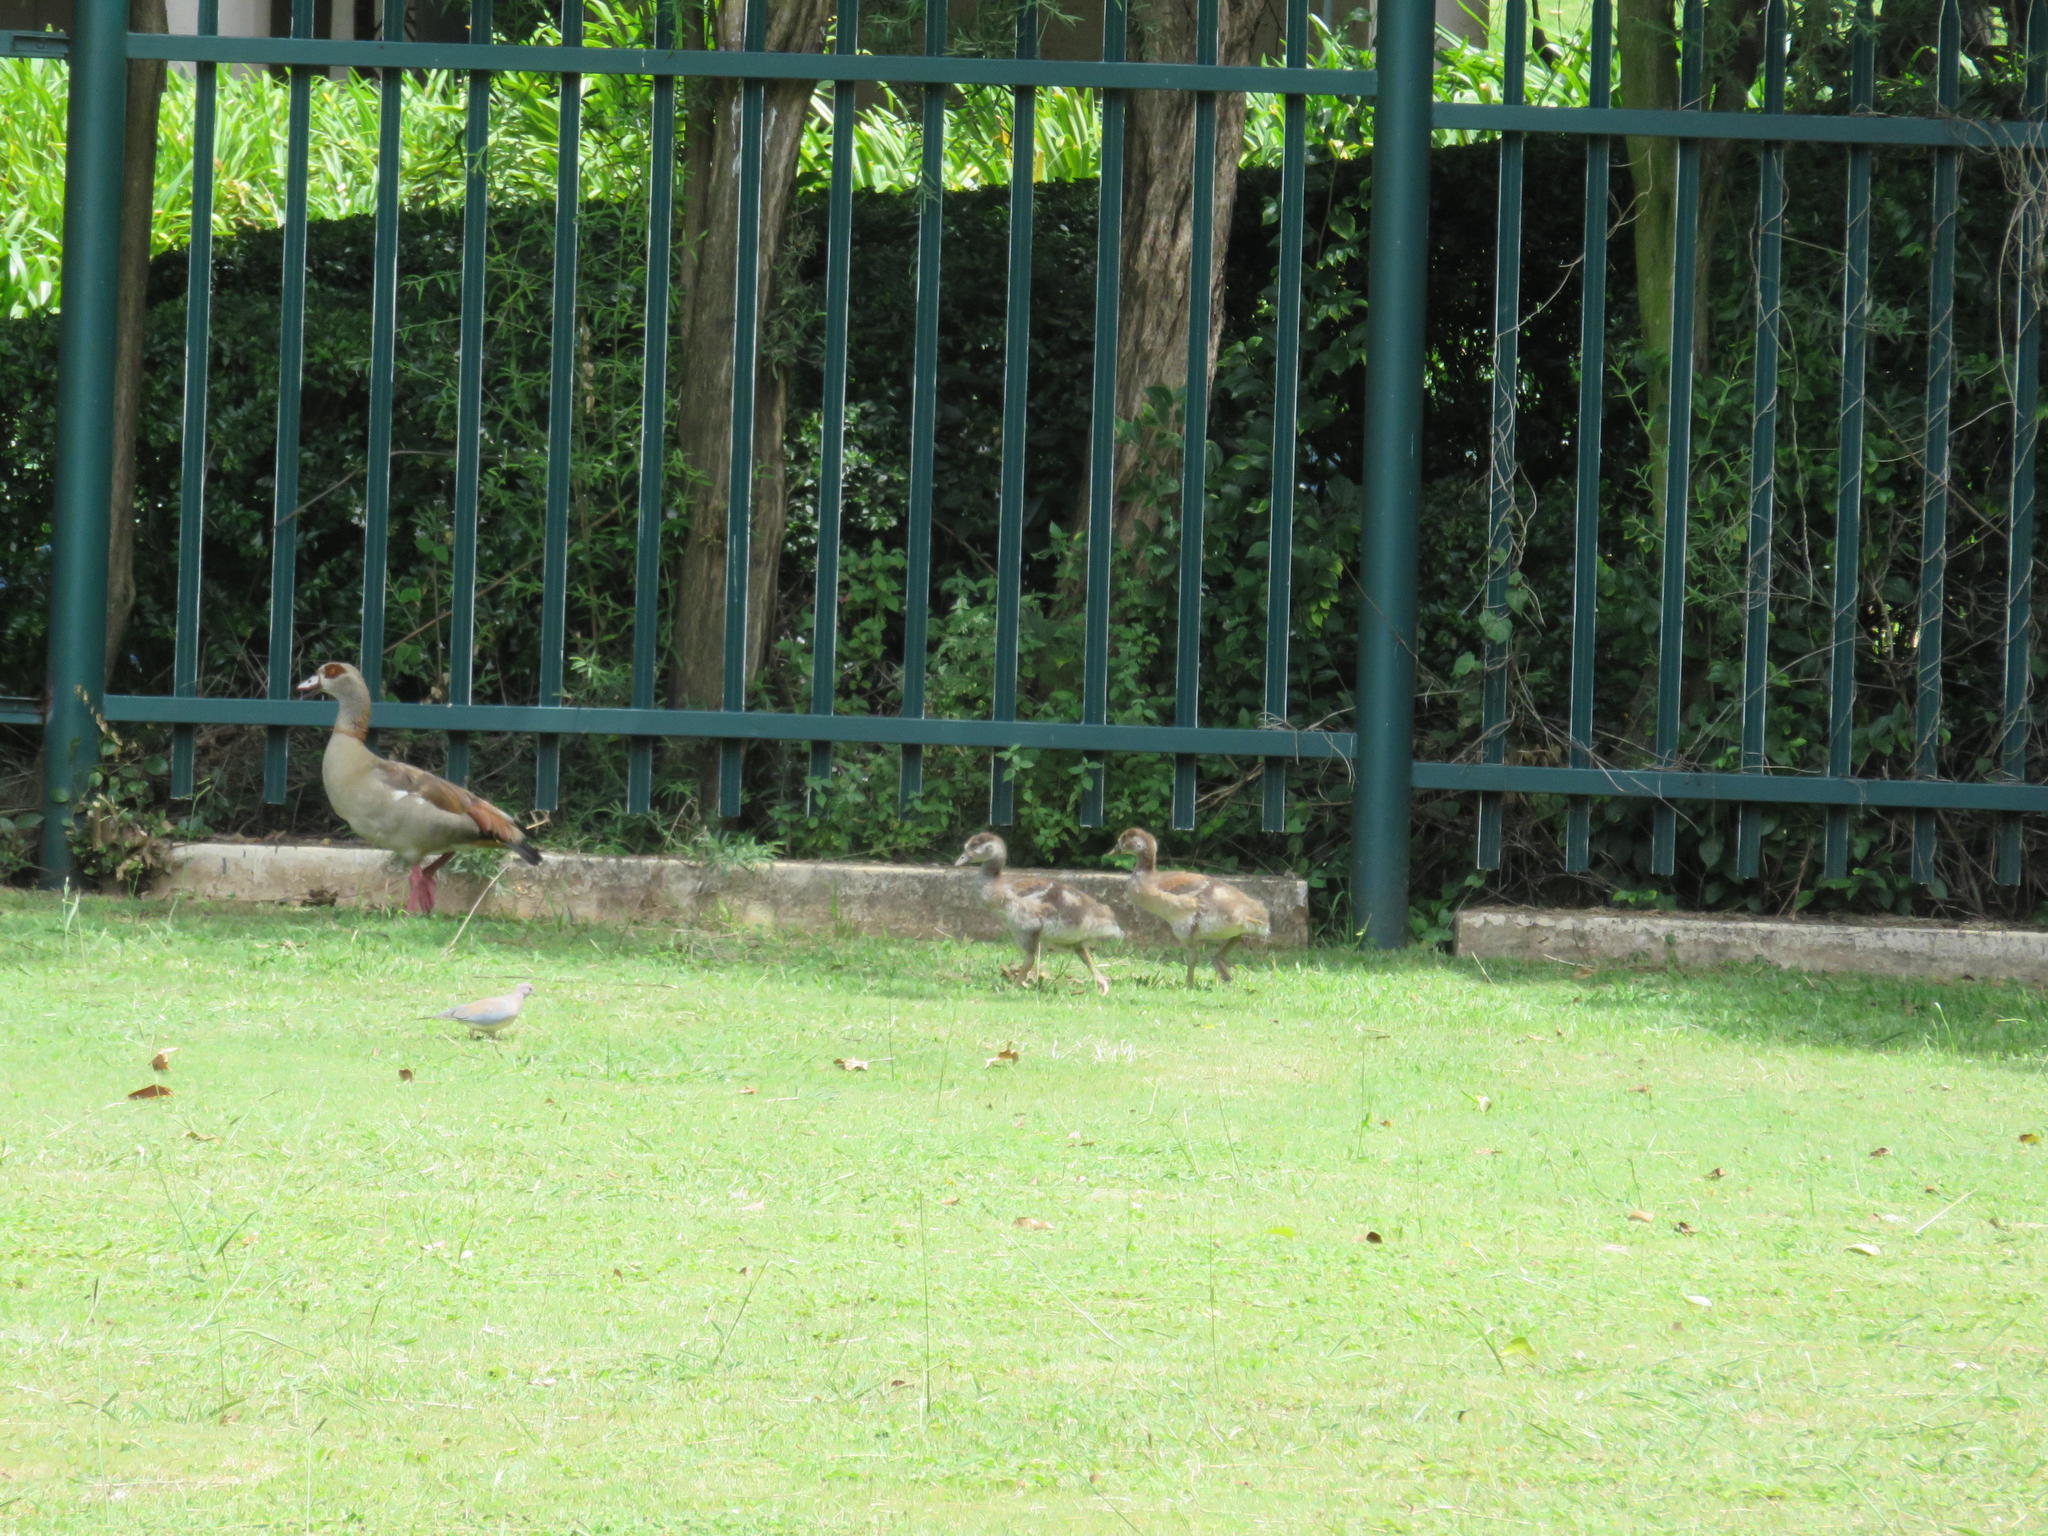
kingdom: Animalia
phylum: Chordata
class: Aves
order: Anseriformes
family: Anatidae
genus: Alopochen
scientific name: Alopochen aegyptiaca
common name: Egyptian goose
